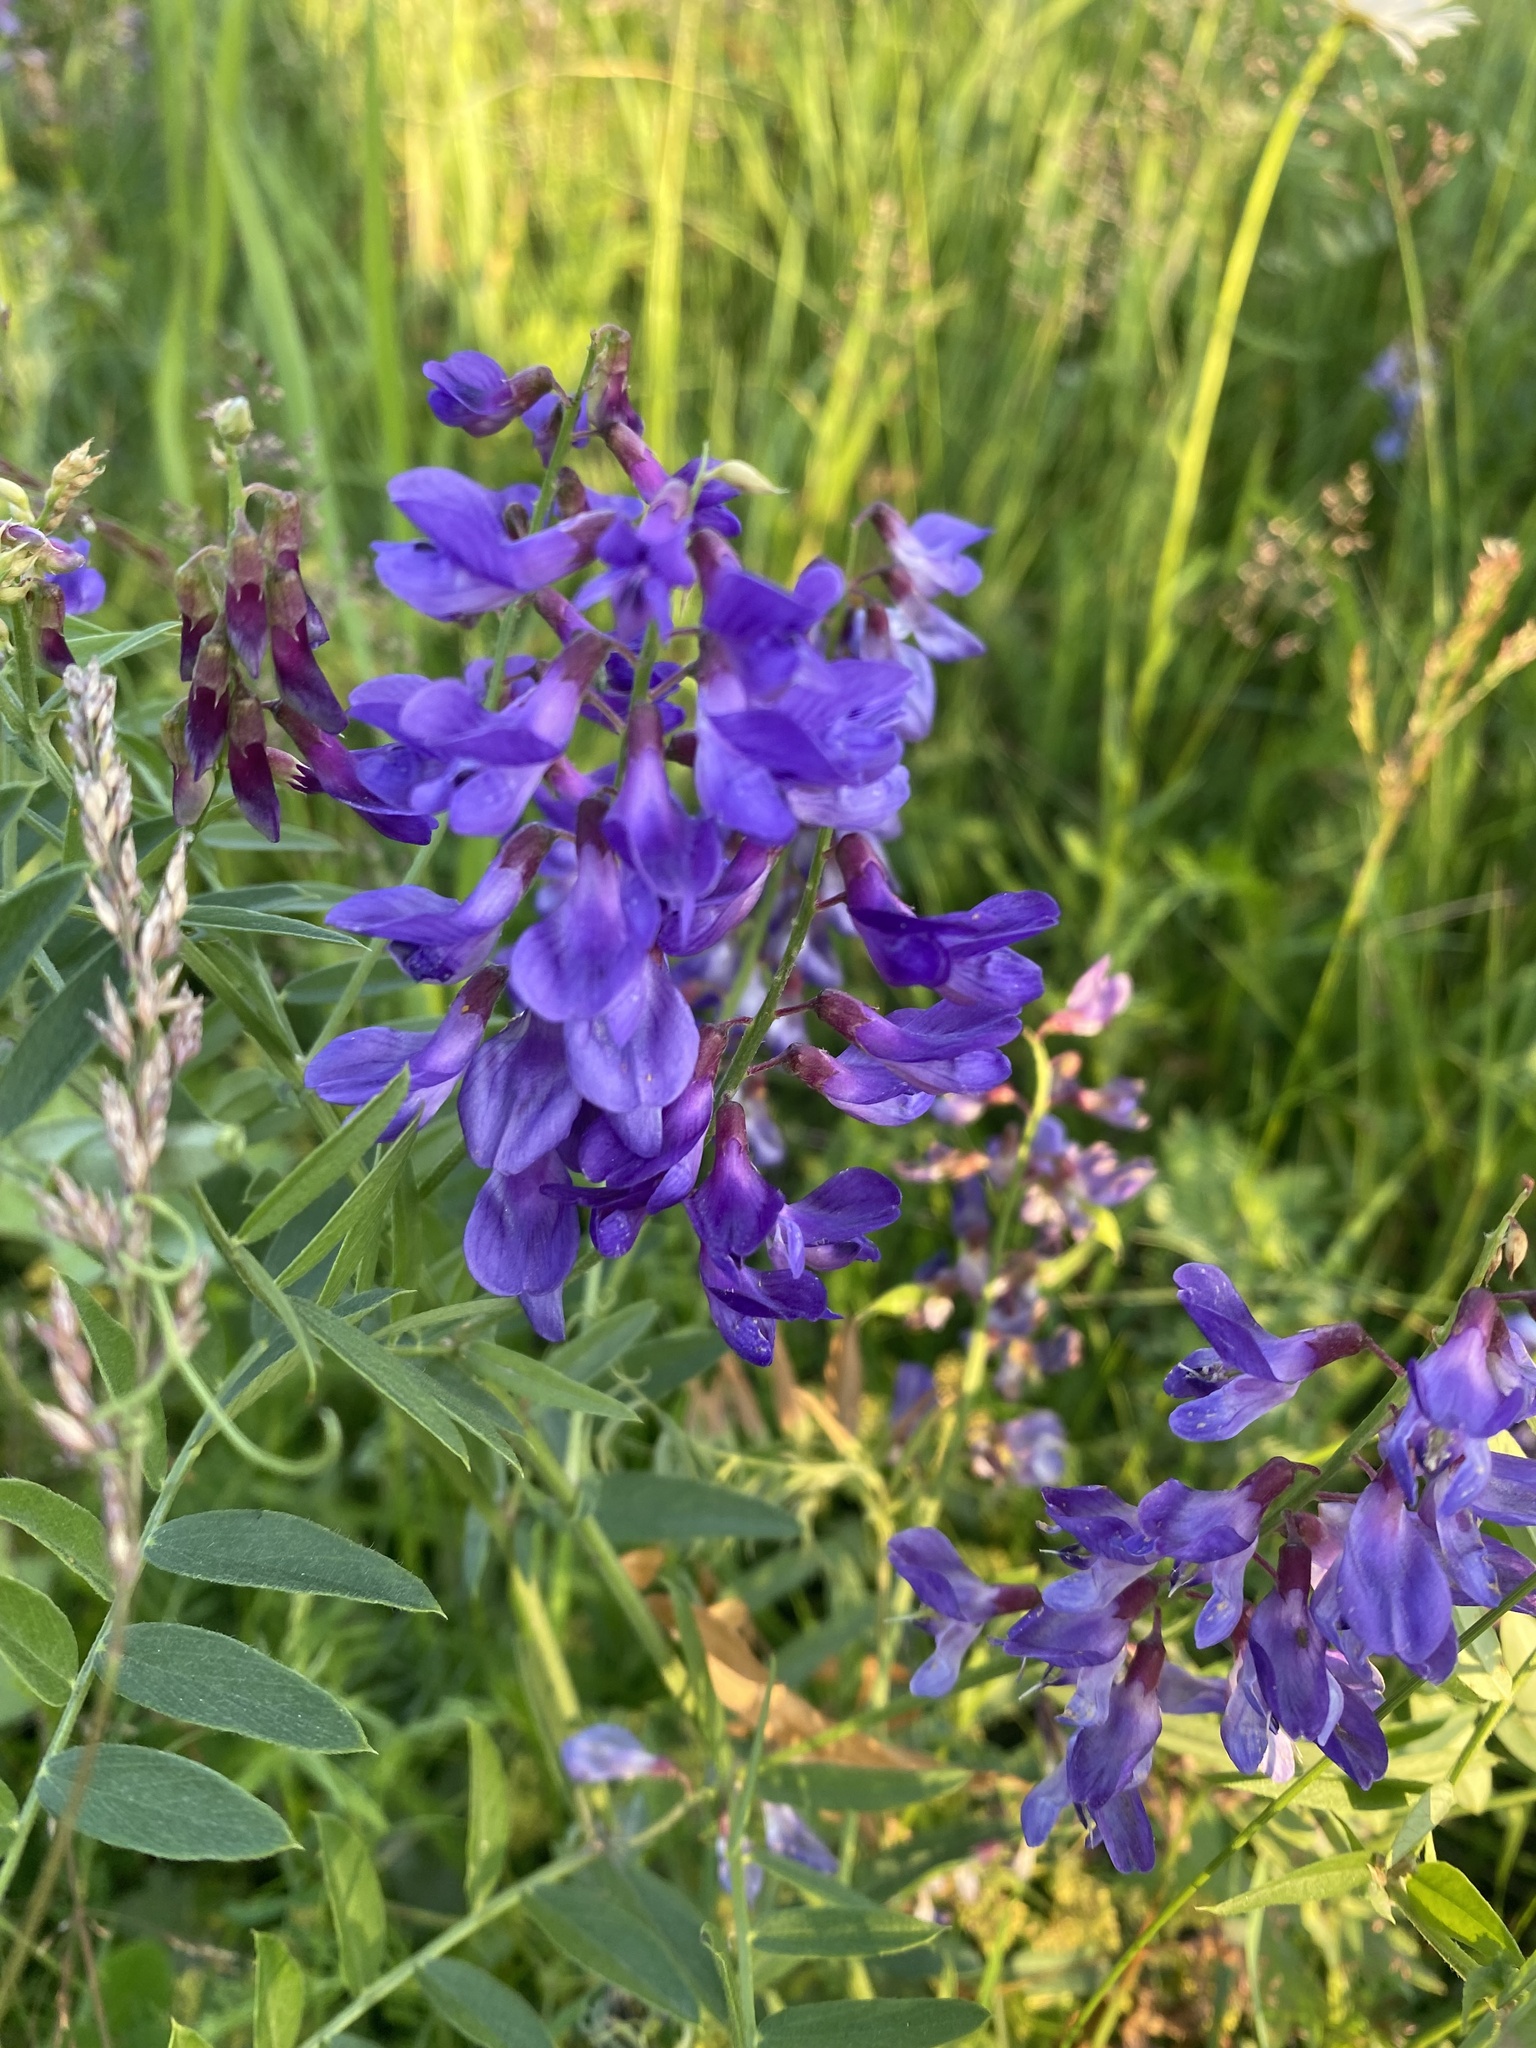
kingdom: Plantae
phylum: Tracheophyta
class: Magnoliopsida
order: Fabales
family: Fabaceae
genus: Vicia
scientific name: Vicia amoena
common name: Cheder ebs
